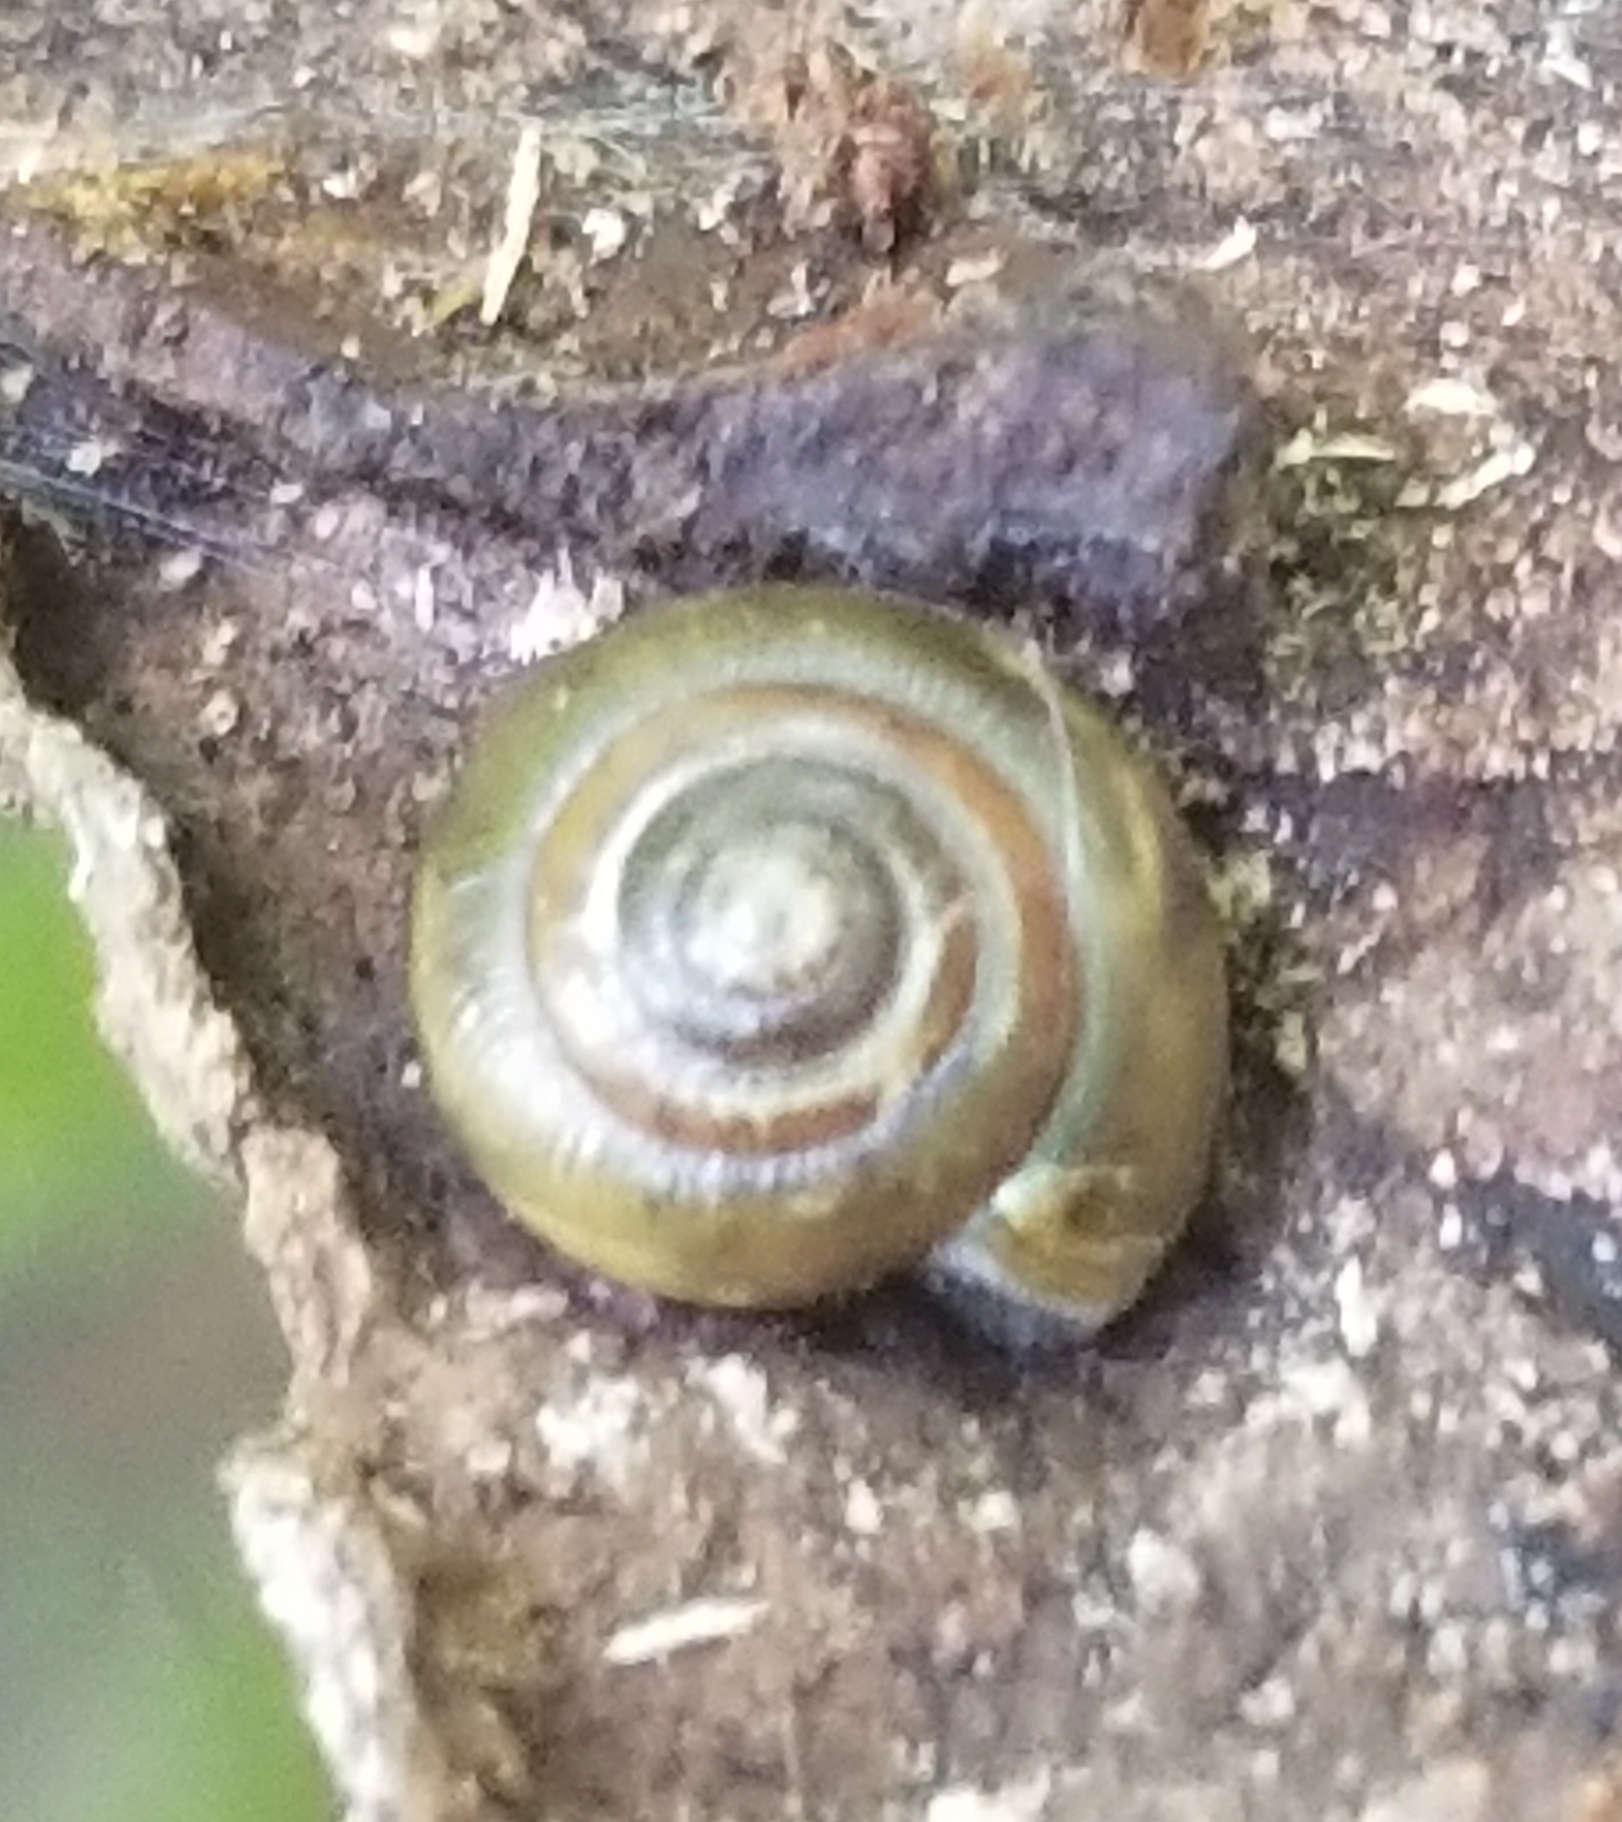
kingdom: Animalia
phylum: Mollusca
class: Gastropoda
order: Stylommatophora
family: Gastrodontidae
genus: Zonitoides
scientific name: Zonitoides arboreus
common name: Quick gloss
